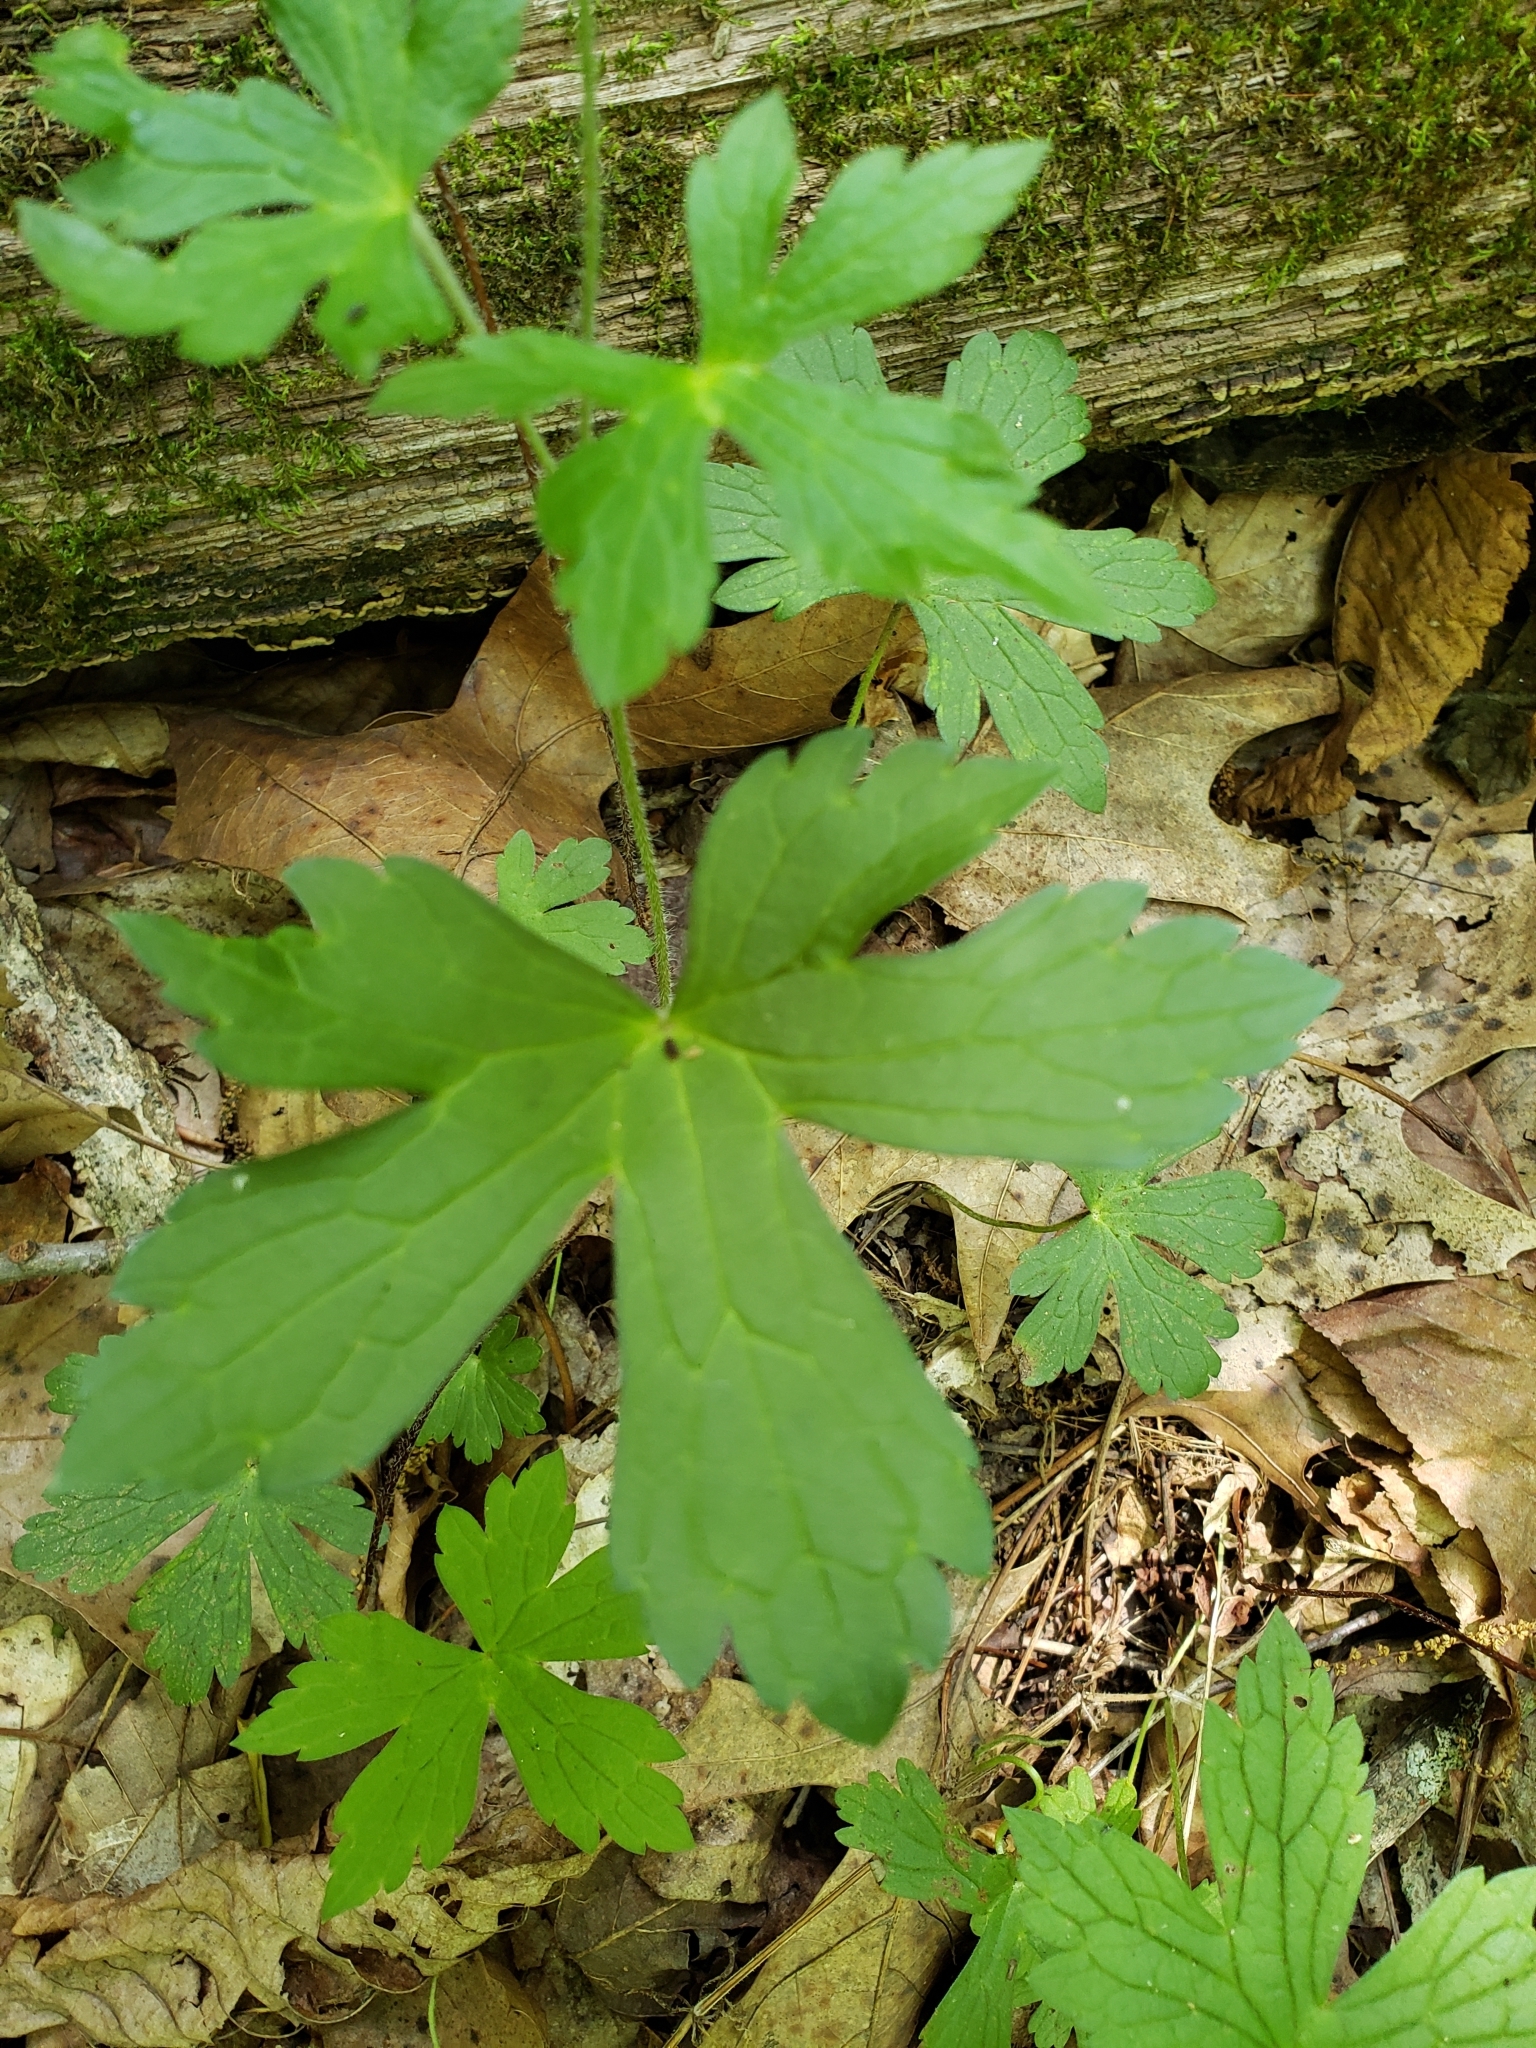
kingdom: Plantae
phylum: Tracheophyta
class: Magnoliopsida
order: Geraniales
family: Geraniaceae
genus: Geranium
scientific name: Geranium maculatum
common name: Spotted geranium
